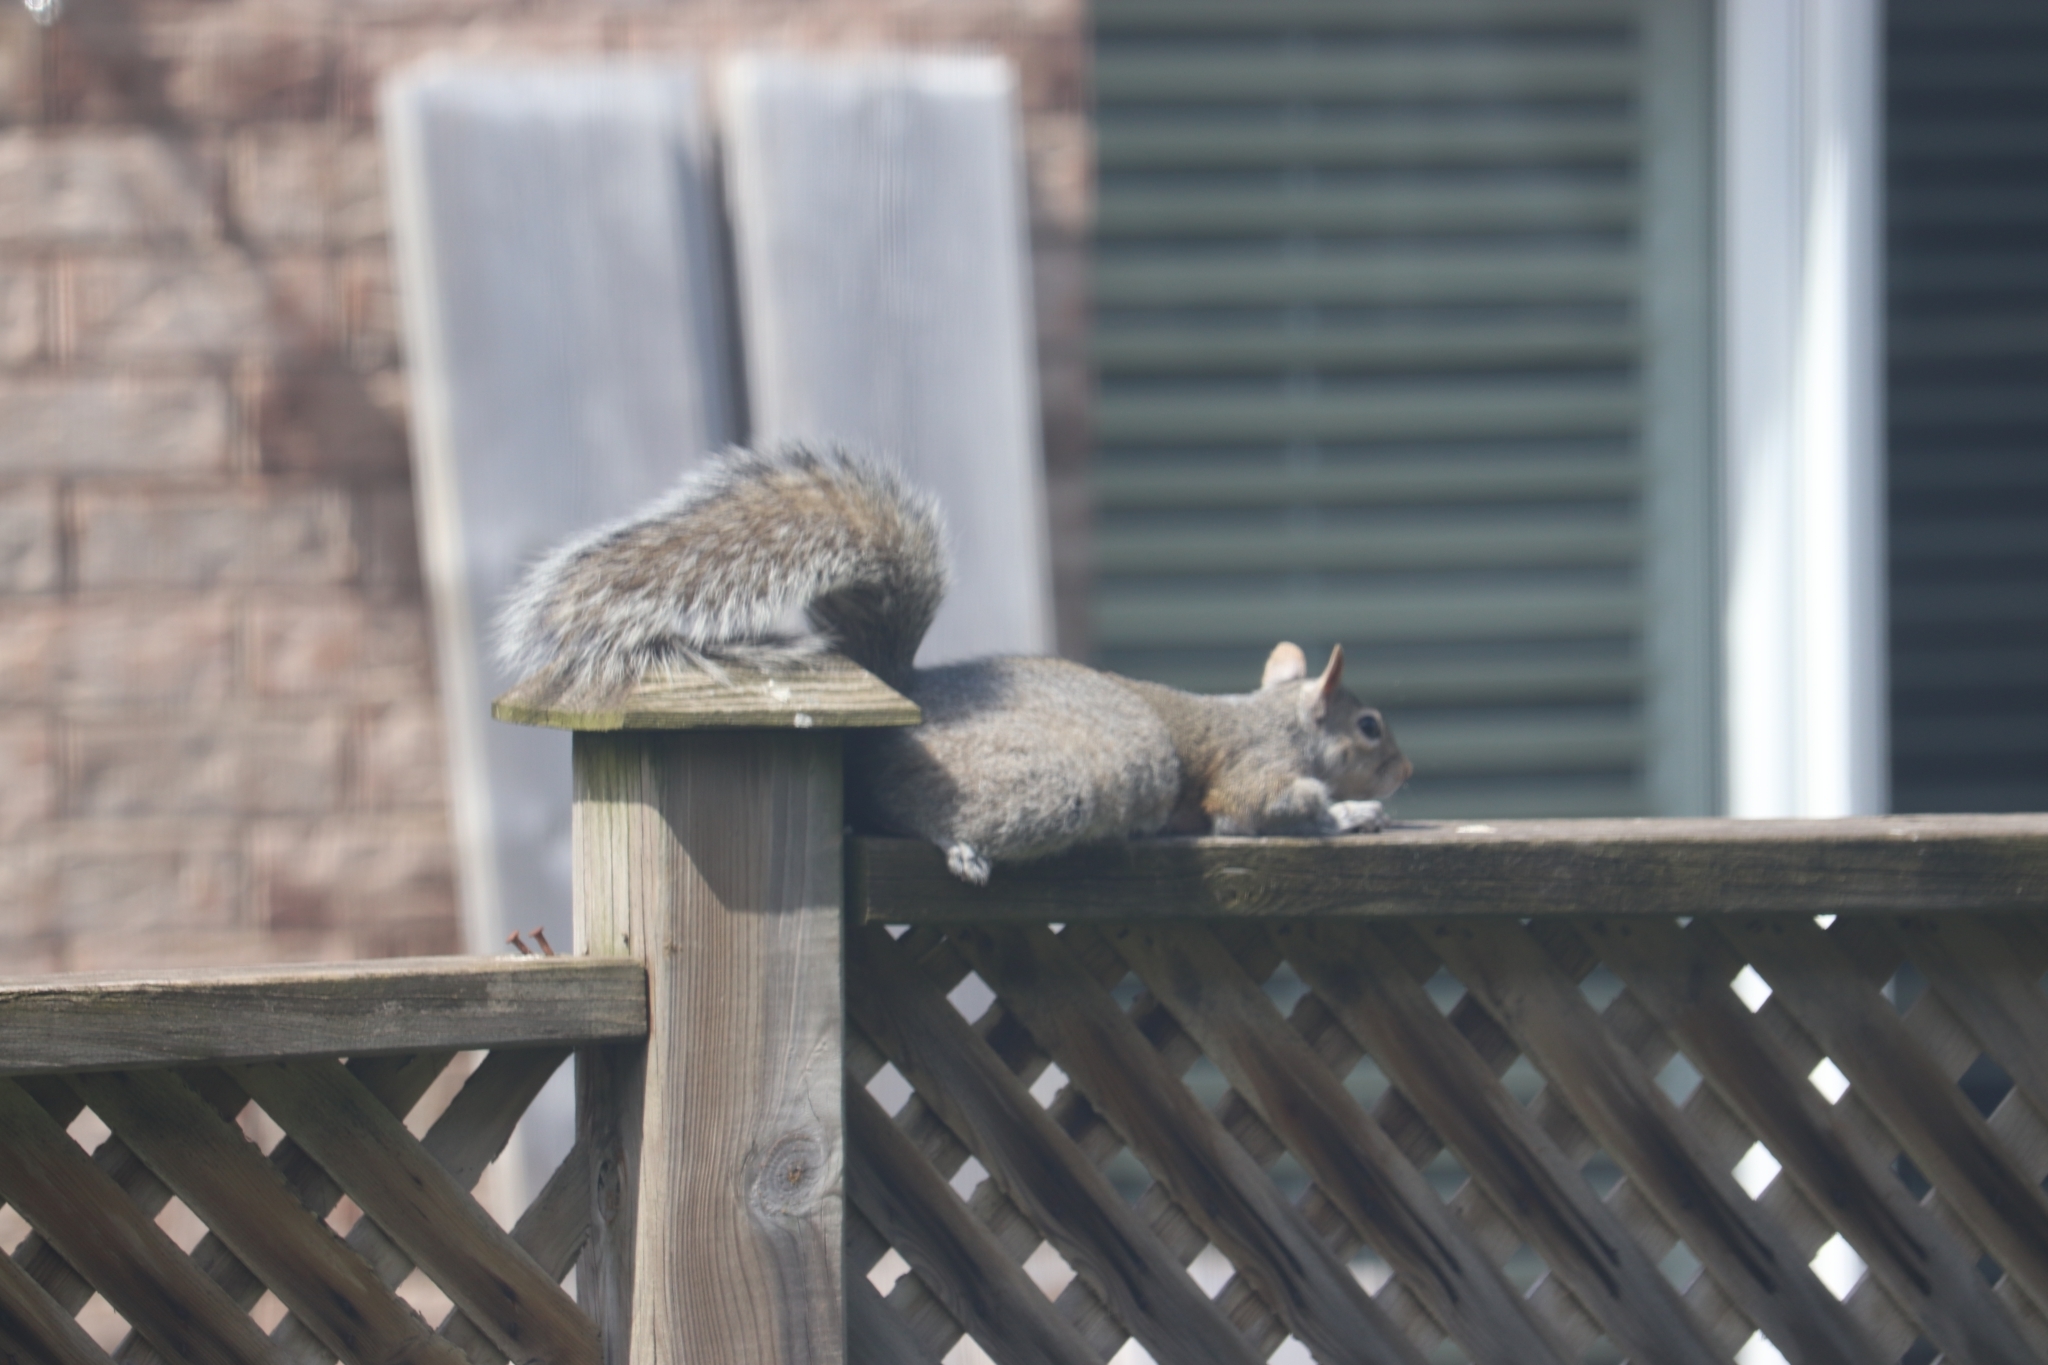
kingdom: Animalia
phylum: Chordata
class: Mammalia
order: Rodentia
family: Sciuridae
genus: Sciurus
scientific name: Sciurus carolinensis
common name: Eastern gray squirrel
